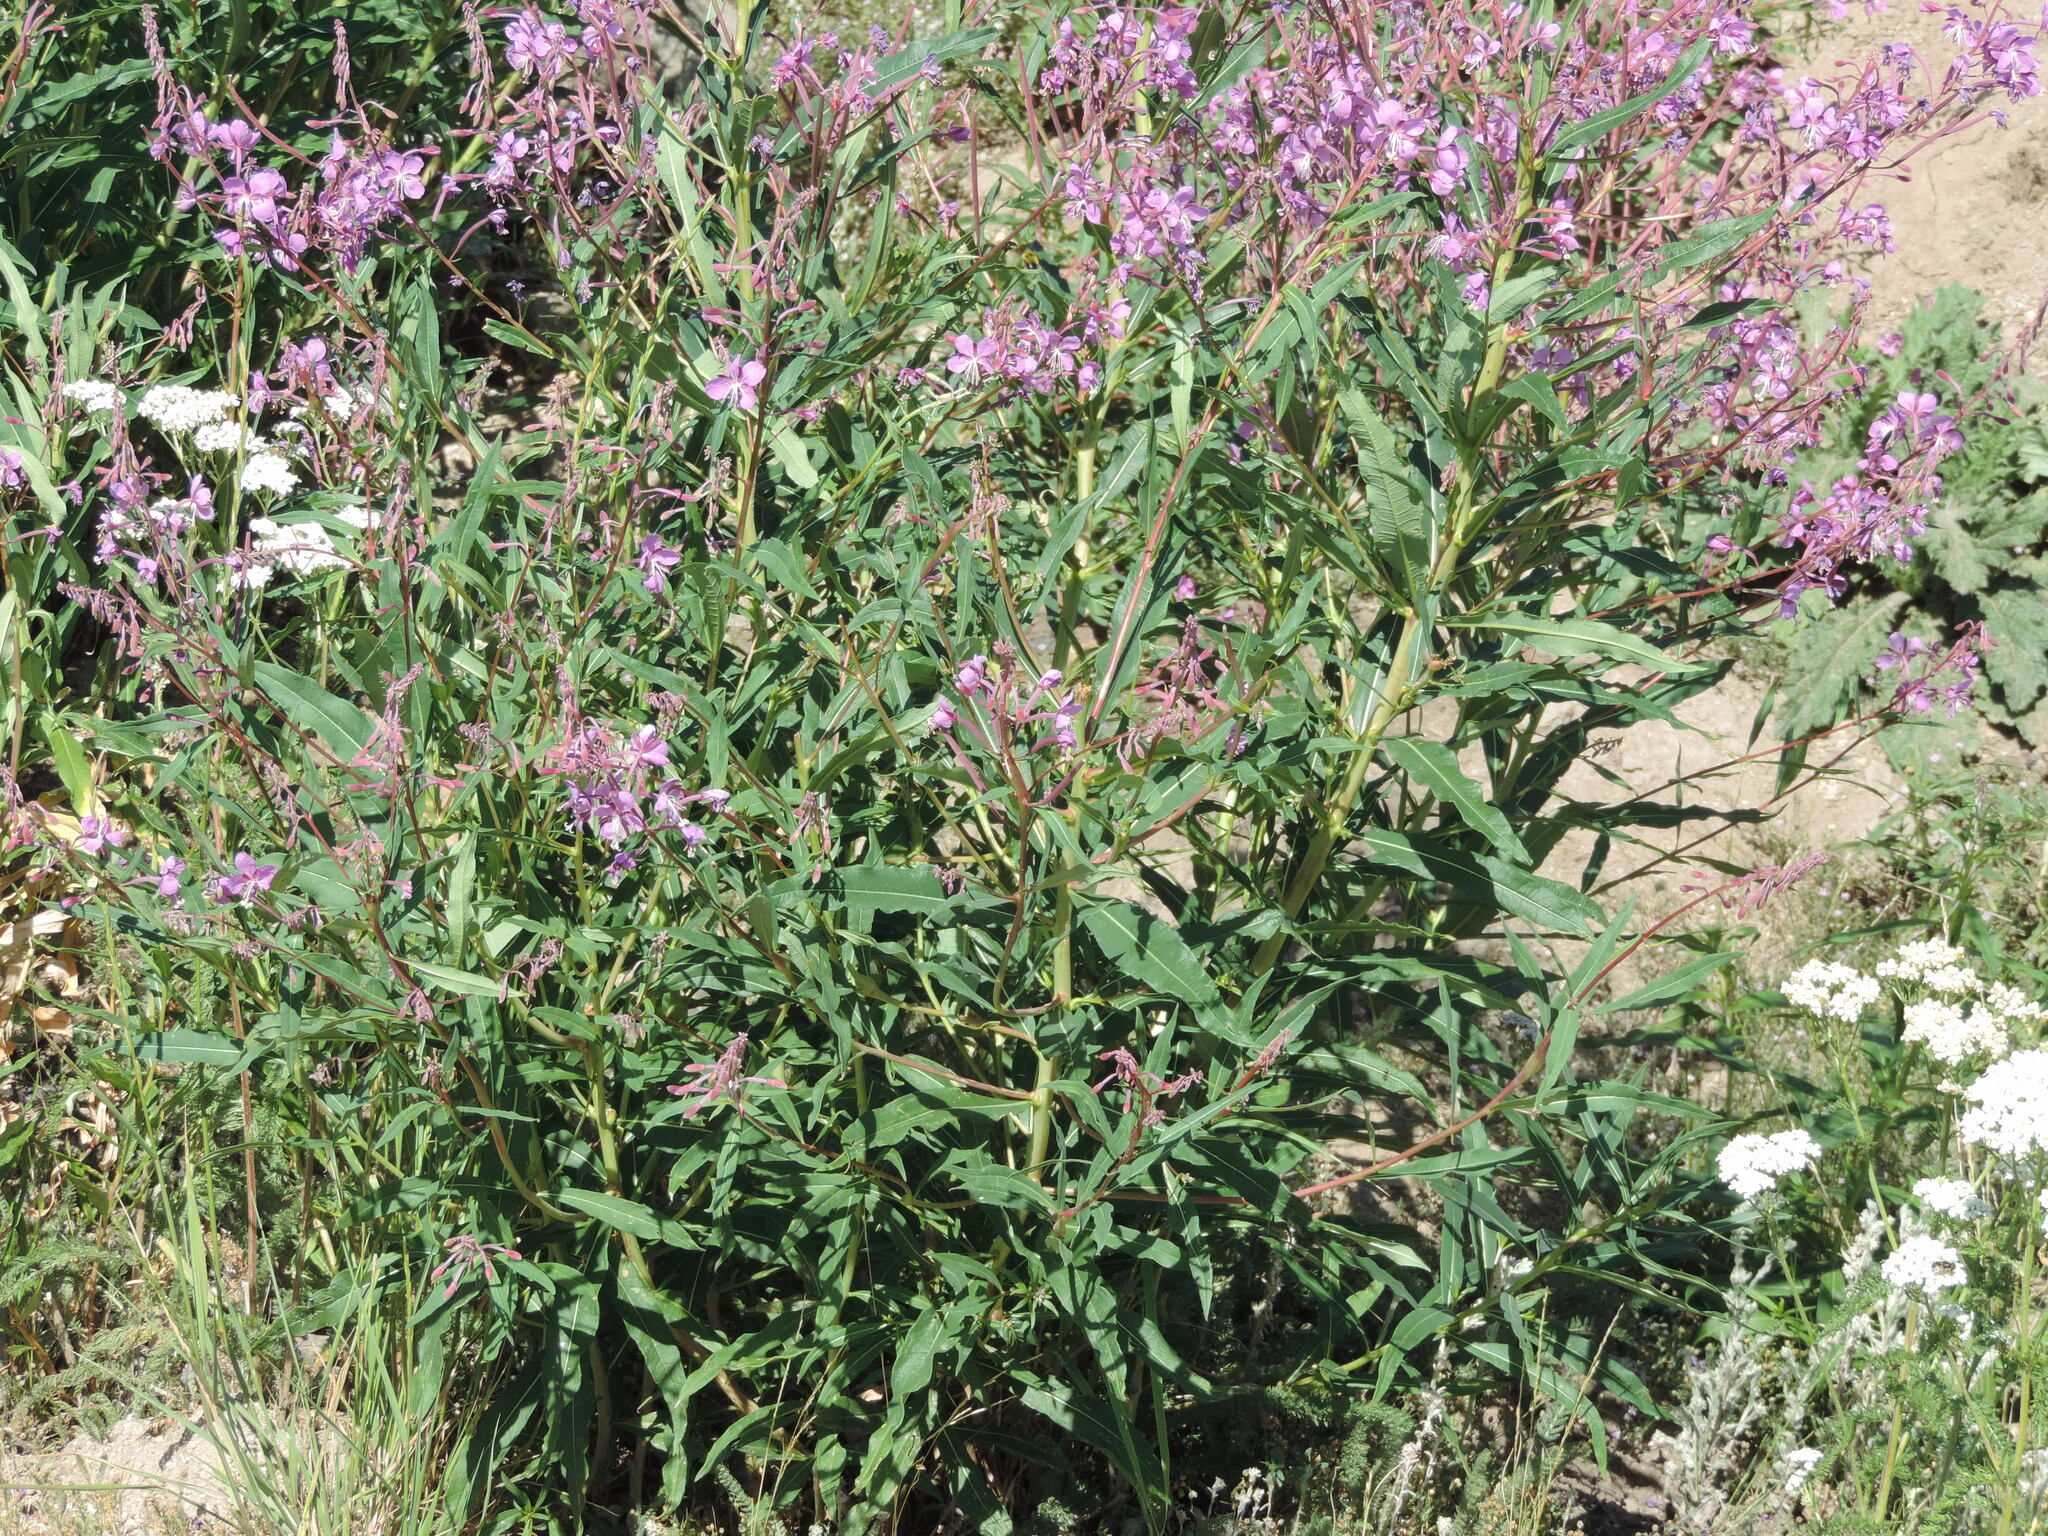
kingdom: Plantae
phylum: Tracheophyta
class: Magnoliopsida
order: Myrtales
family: Onagraceae
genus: Chamaenerion
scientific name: Chamaenerion angustifolium
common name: Fireweed
